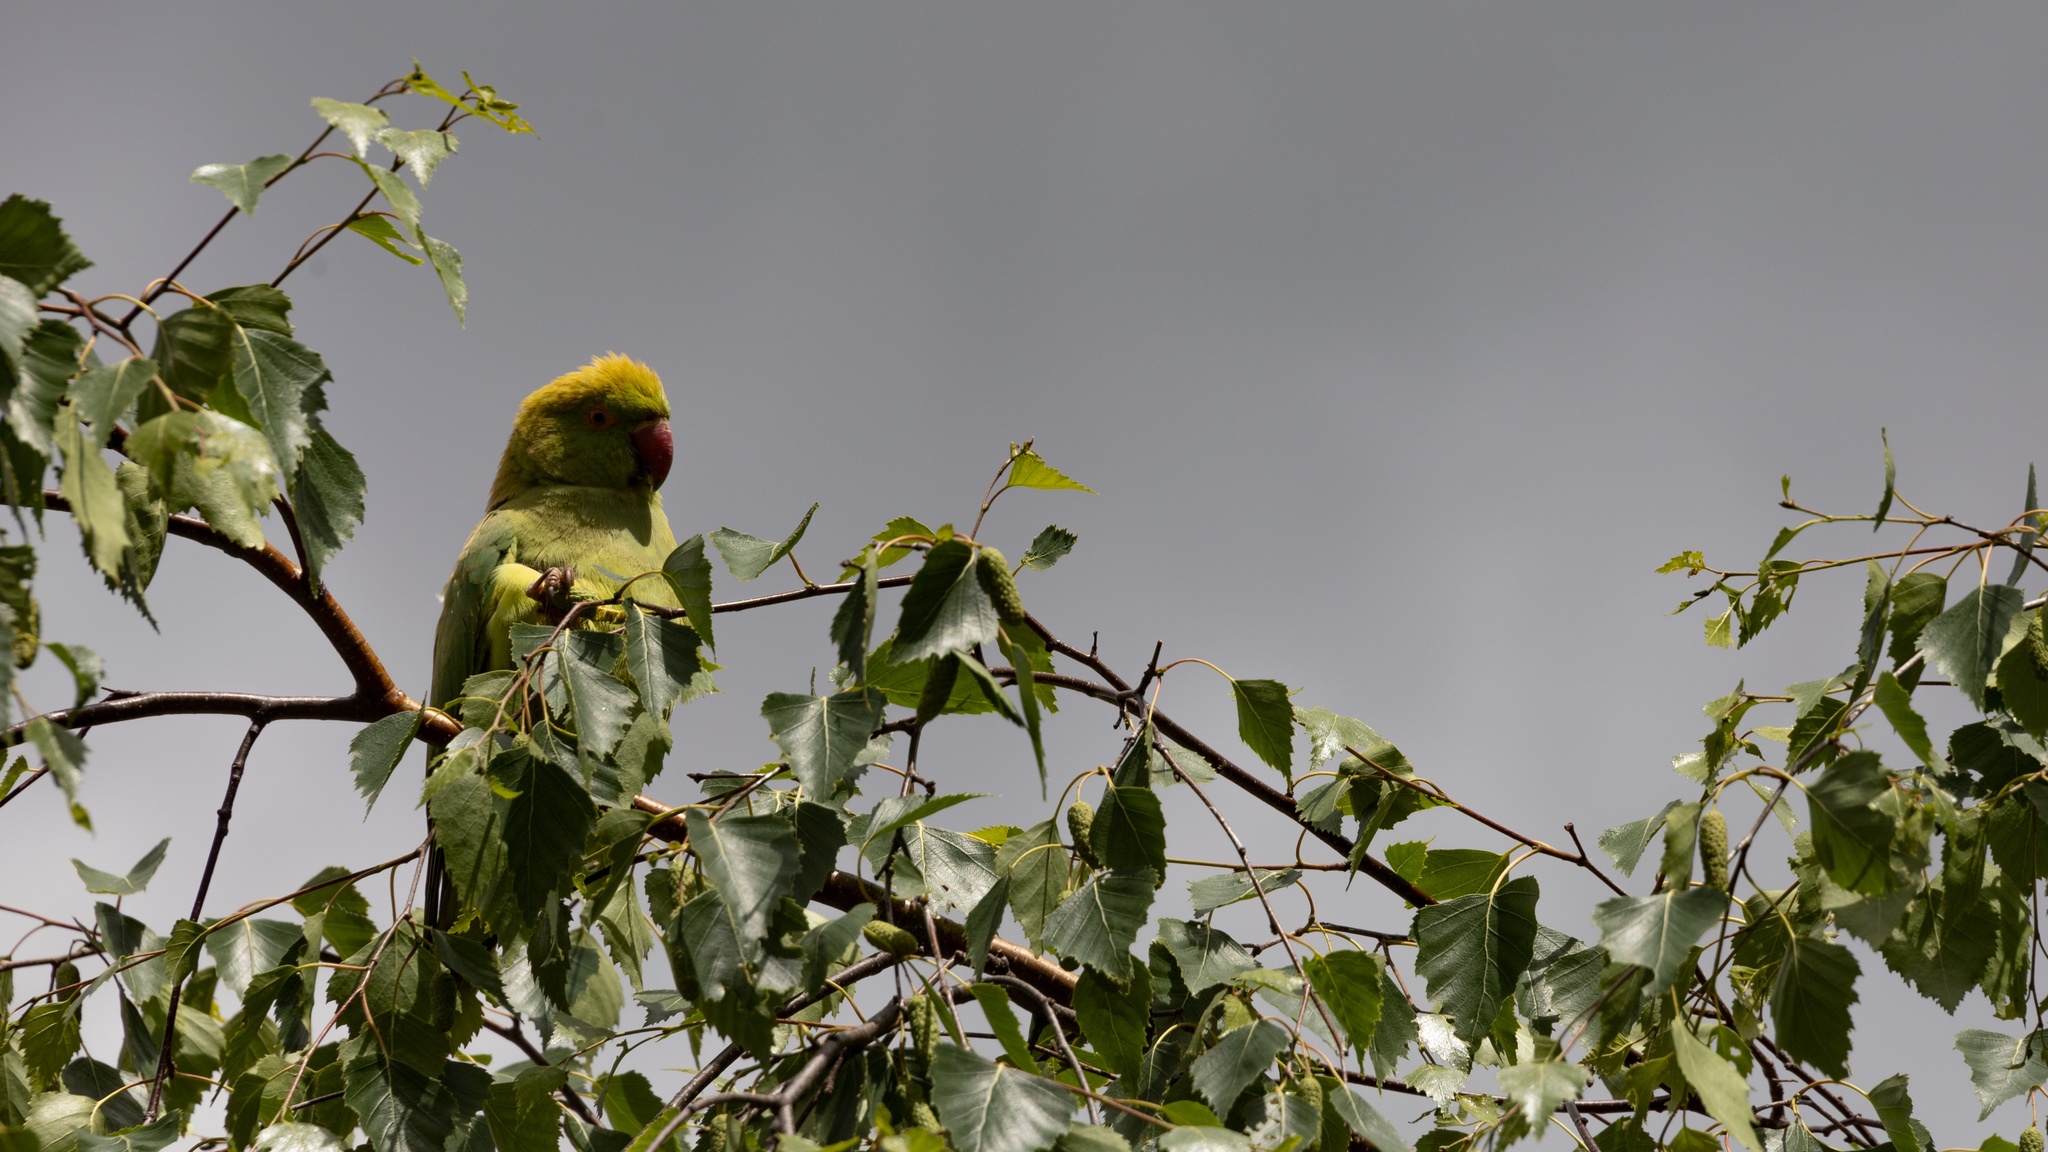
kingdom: Animalia
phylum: Chordata
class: Aves
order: Psittaciformes
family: Psittacidae
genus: Psittacula
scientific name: Psittacula krameri
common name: Rose-ringed parakeet
